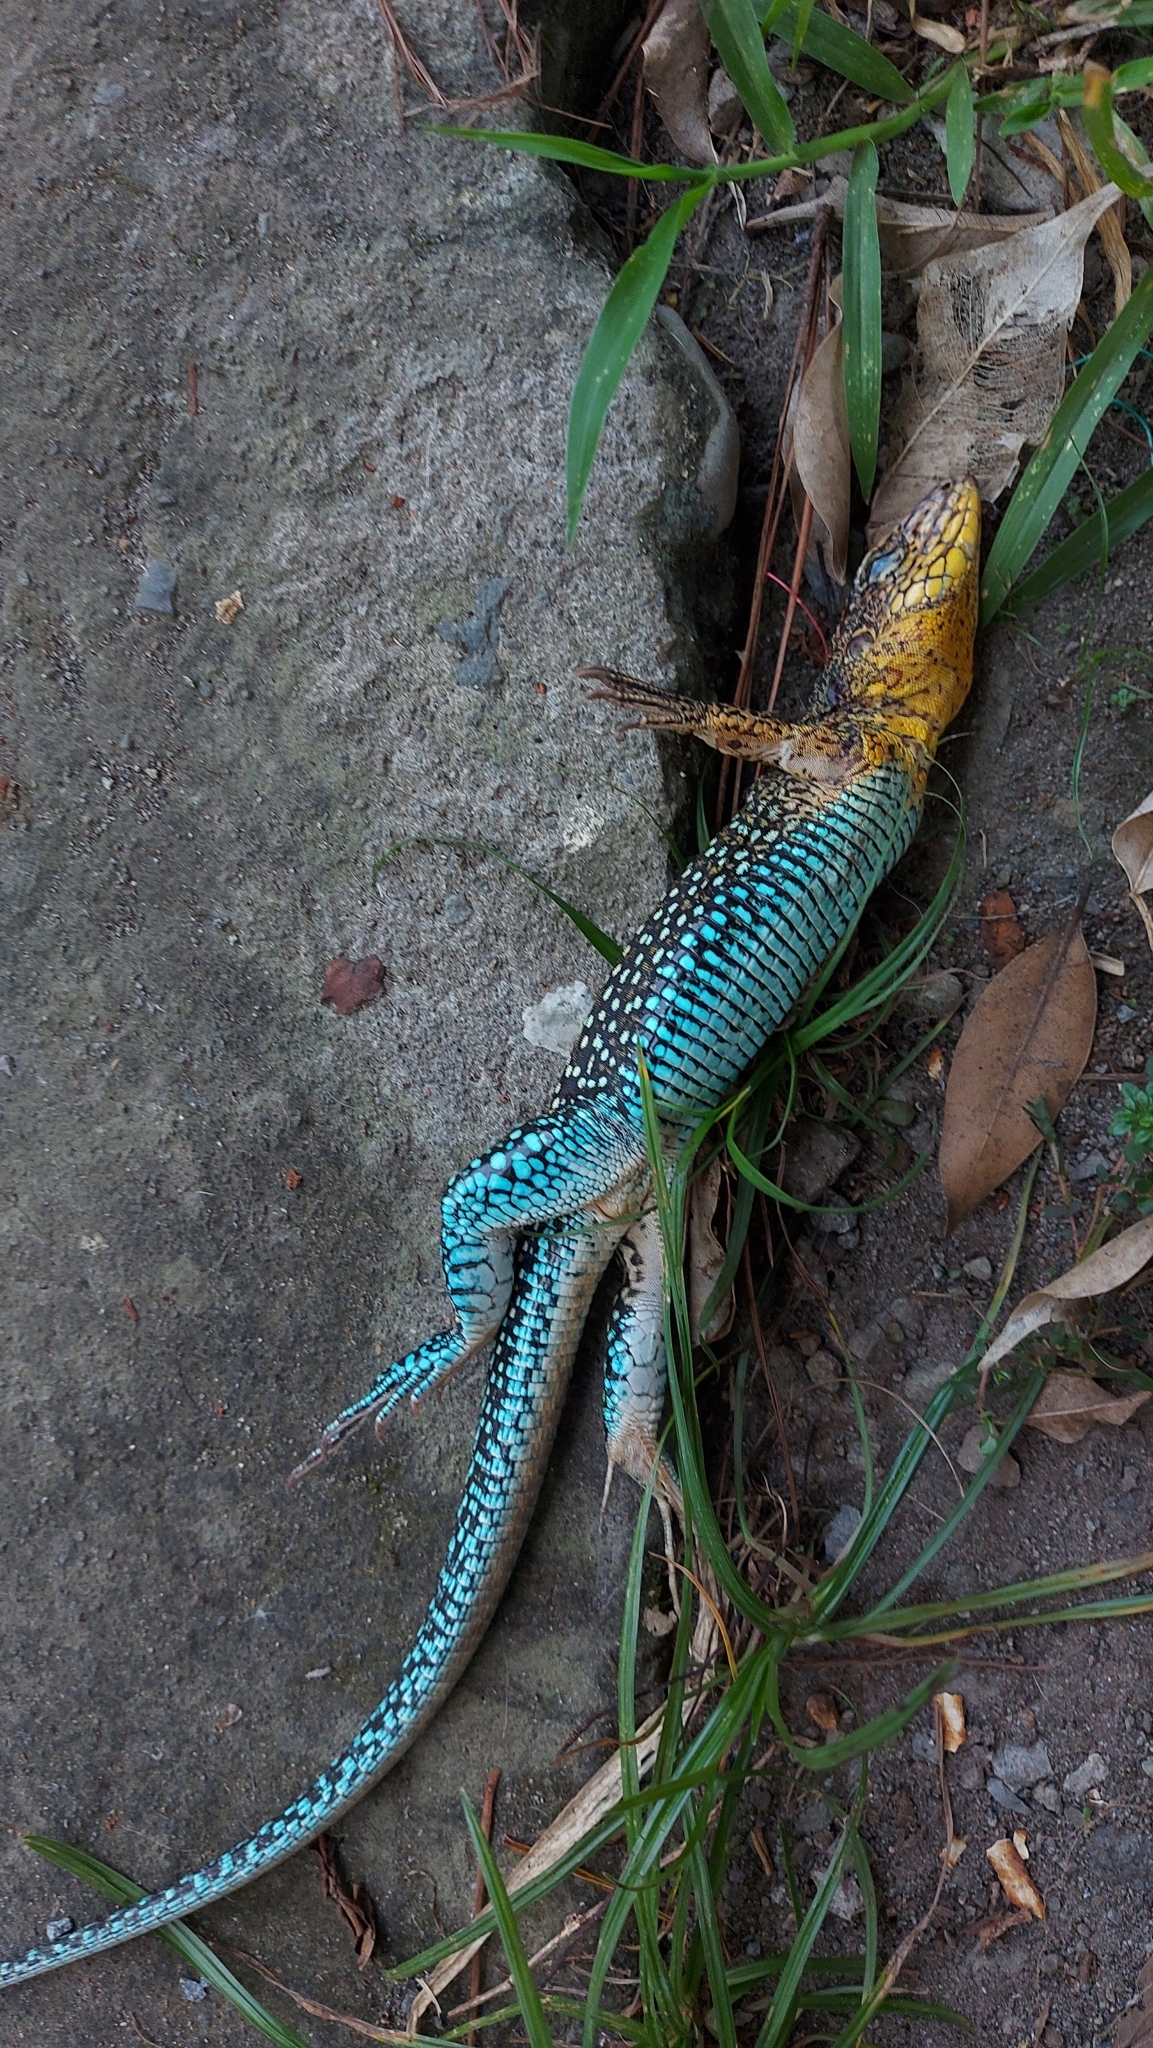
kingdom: Animalia
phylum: Chordata
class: Squamata
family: Teiidae
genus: Ameiva
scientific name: Ameiva praesignis
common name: Giant ameiva
